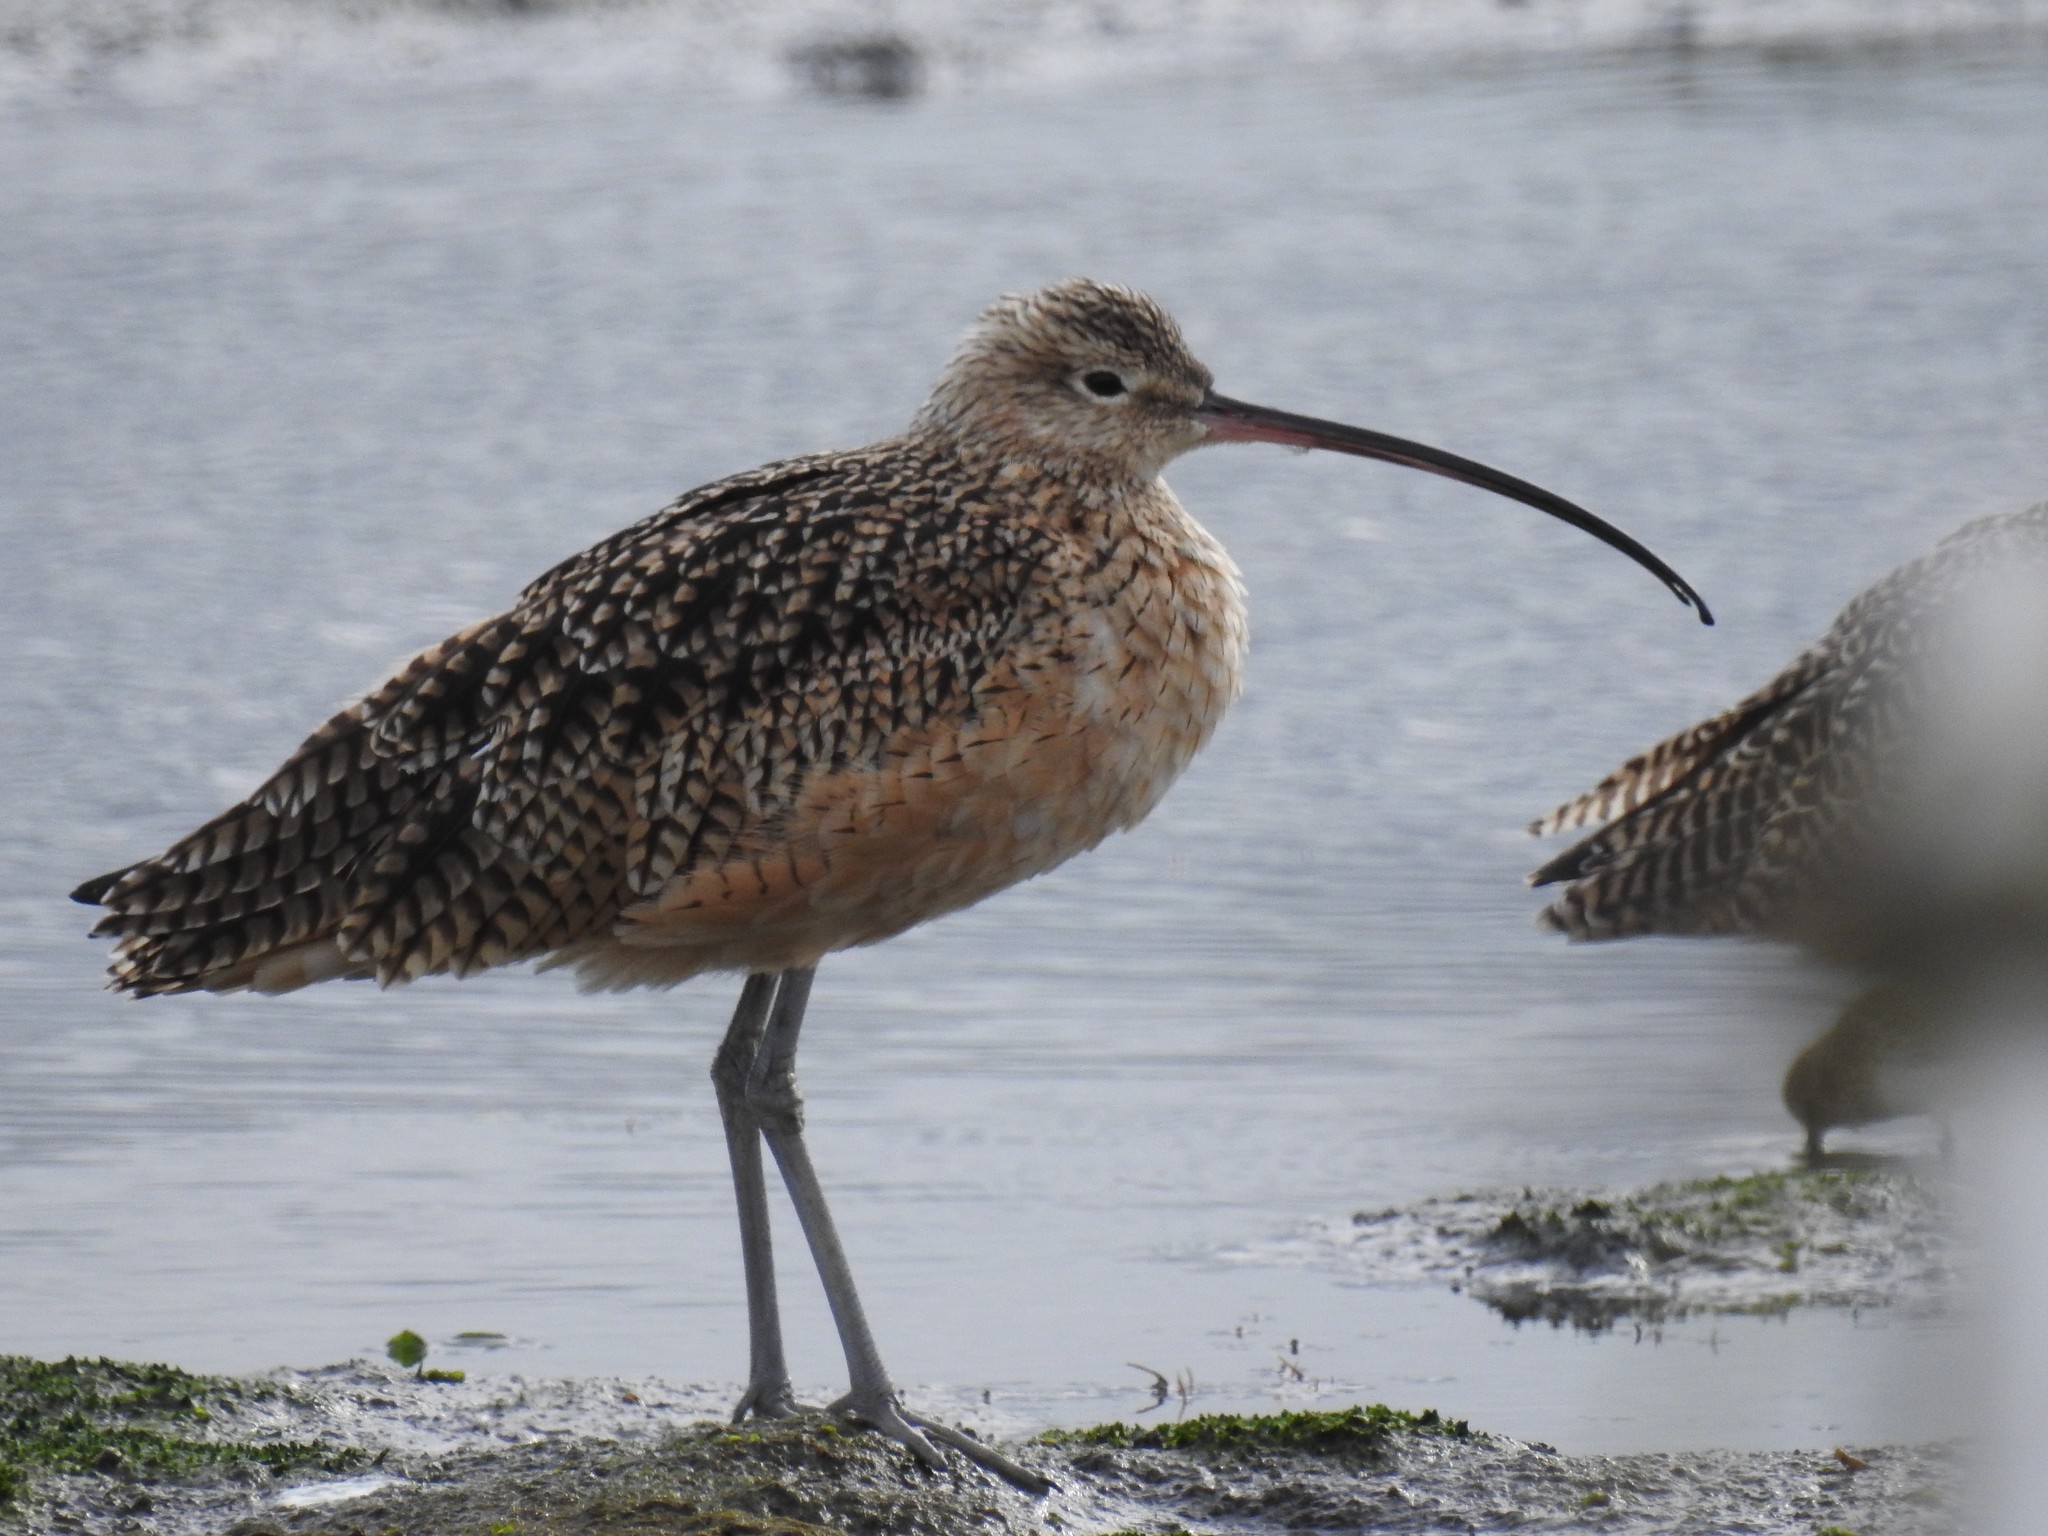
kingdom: Animalia
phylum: Chordata
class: Aves
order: Charadriiformes
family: Scolopacidae
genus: Numenius
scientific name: Numenius americanus
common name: Long-billed curlew
